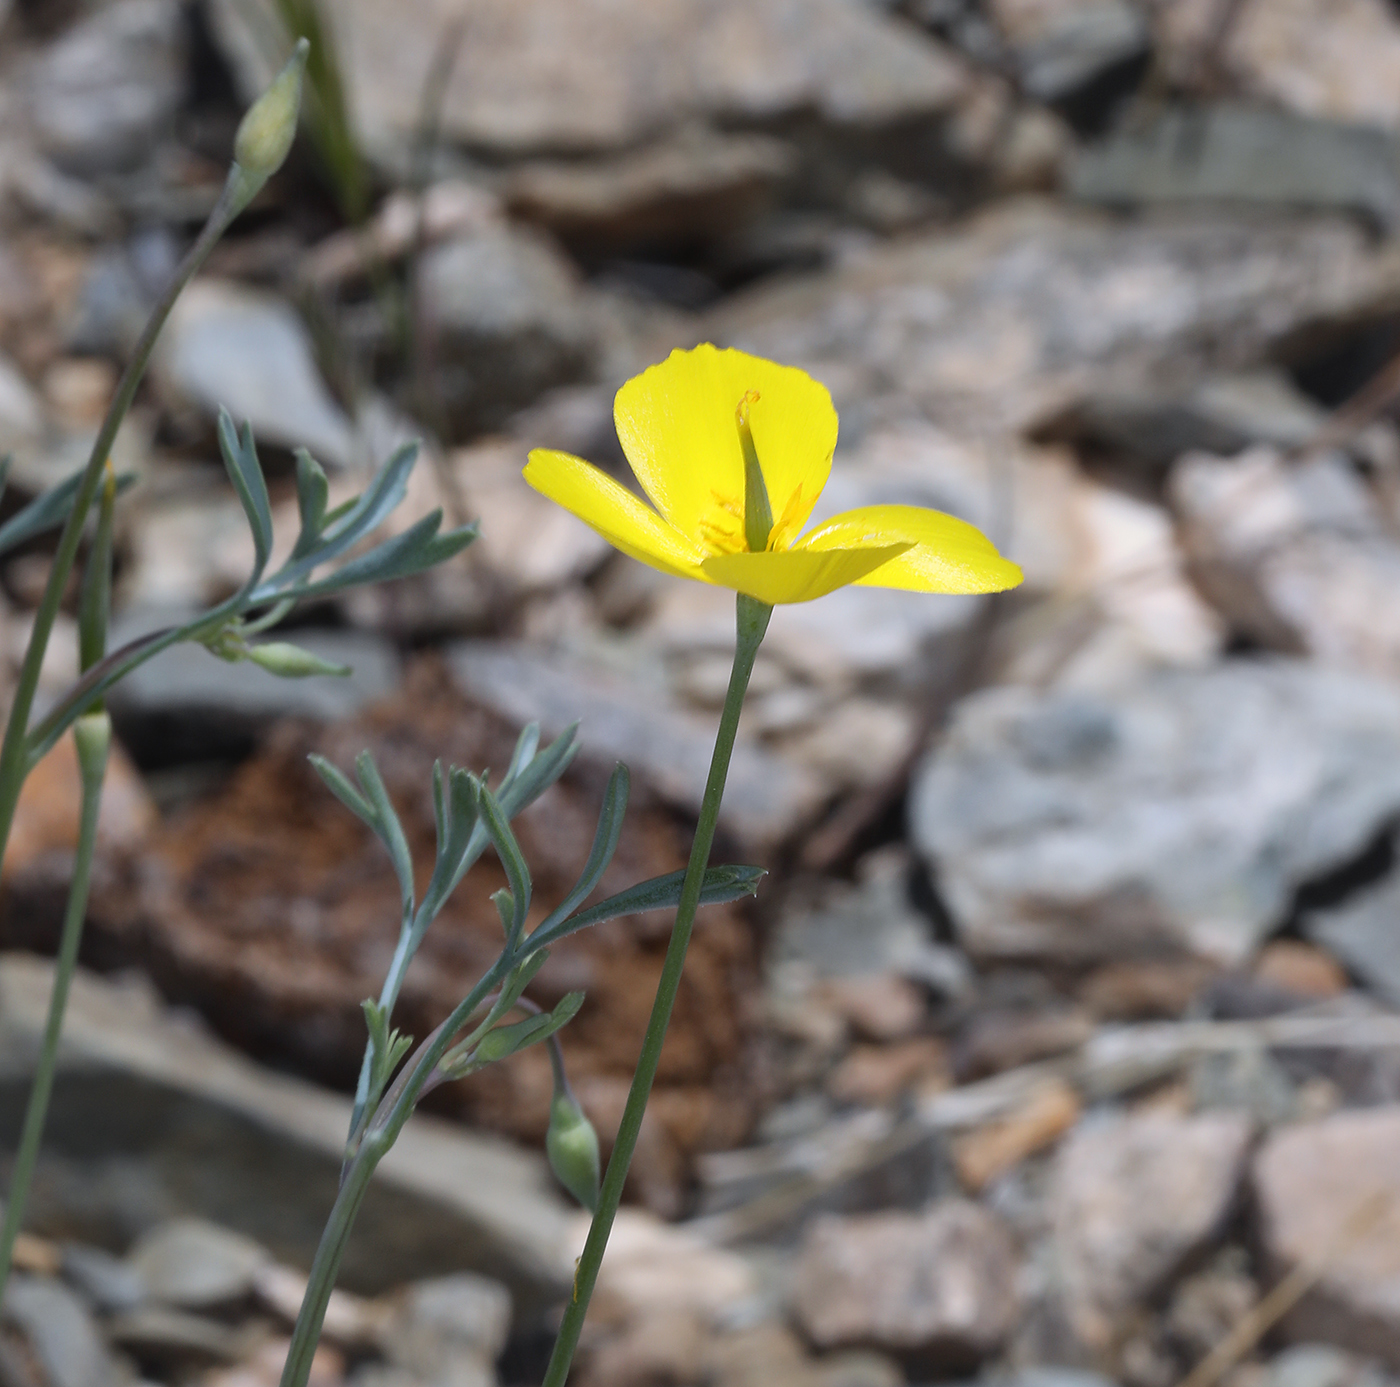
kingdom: Plantae
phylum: Tracheophyta
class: Magnoliopsida
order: Ranunculales
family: Papaveraceae
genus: Eschscholzia
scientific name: Eschscholzia minutiflora
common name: Small-flower california-poppy
